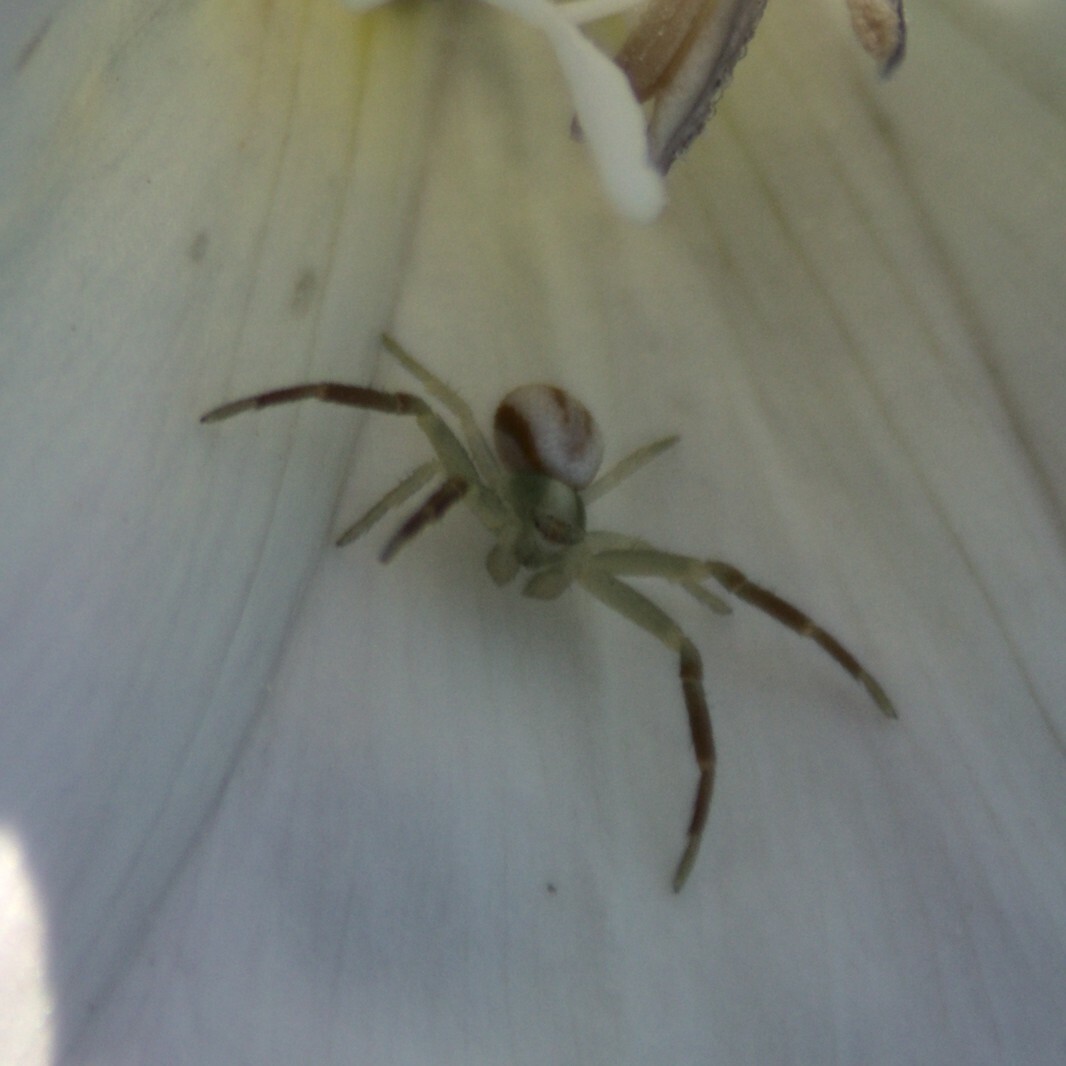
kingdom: Animalia
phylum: Arthropoda
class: Arachnida
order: Araneae
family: Thomisidae
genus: Misumena
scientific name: Misumena vatia
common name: Goldenrod crab spider
